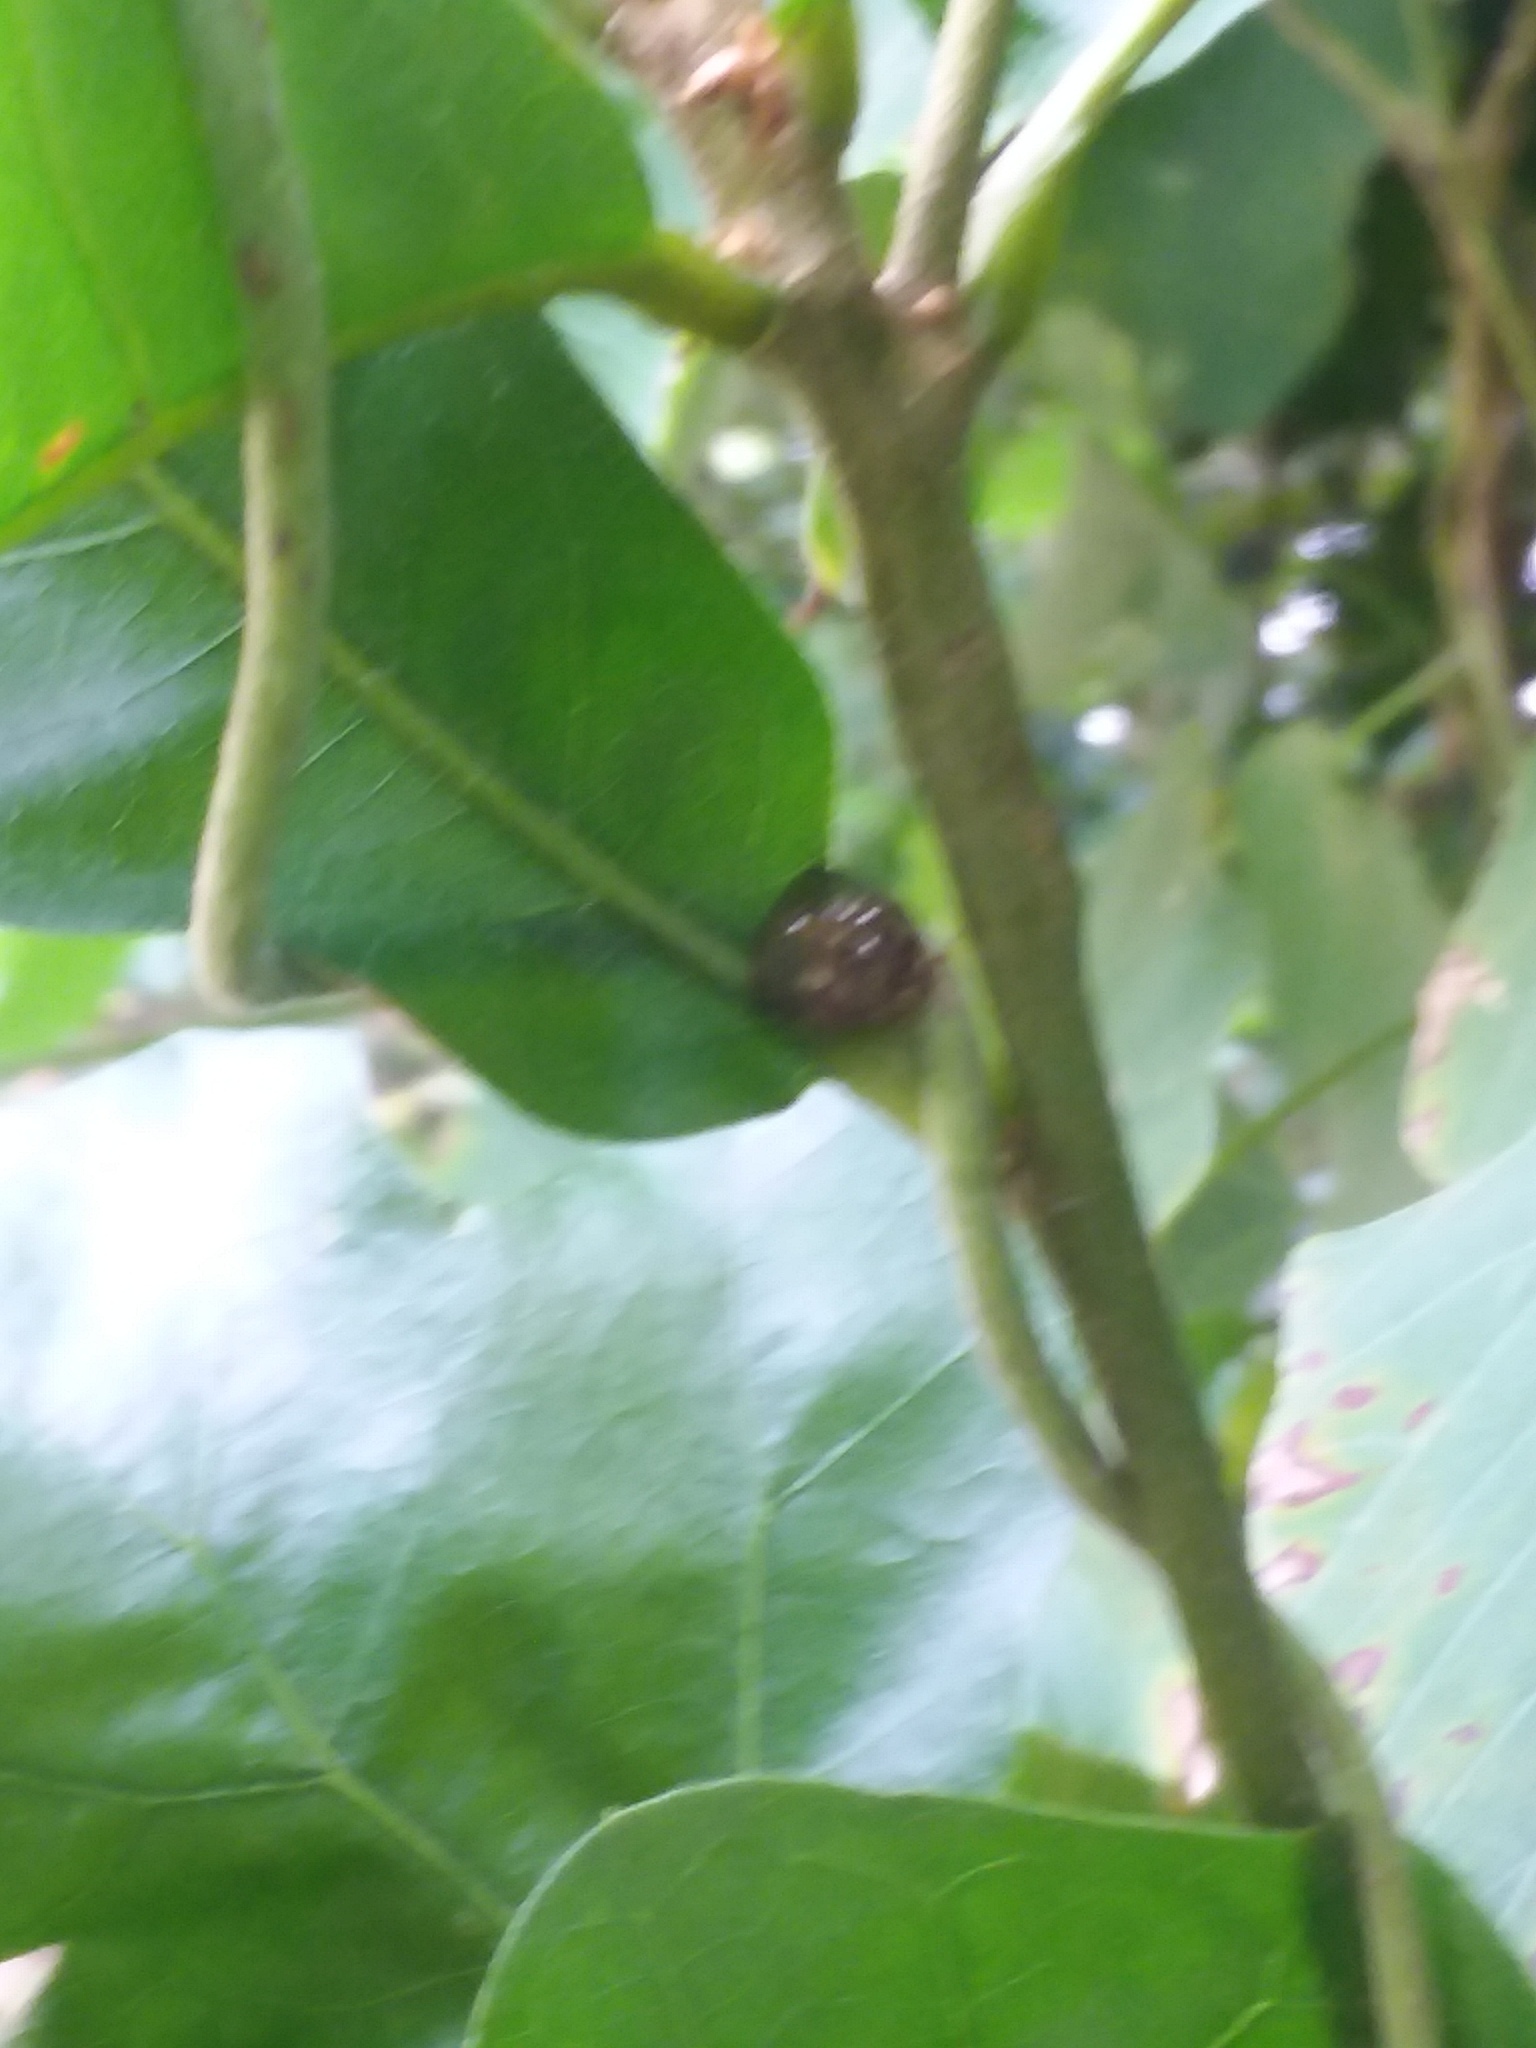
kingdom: Animalia
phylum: Arthropoda
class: Insecta
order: Hemiptera
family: Plataspidae
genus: Megacopta
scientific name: Megacopta cribraria
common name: Bean plataspid
